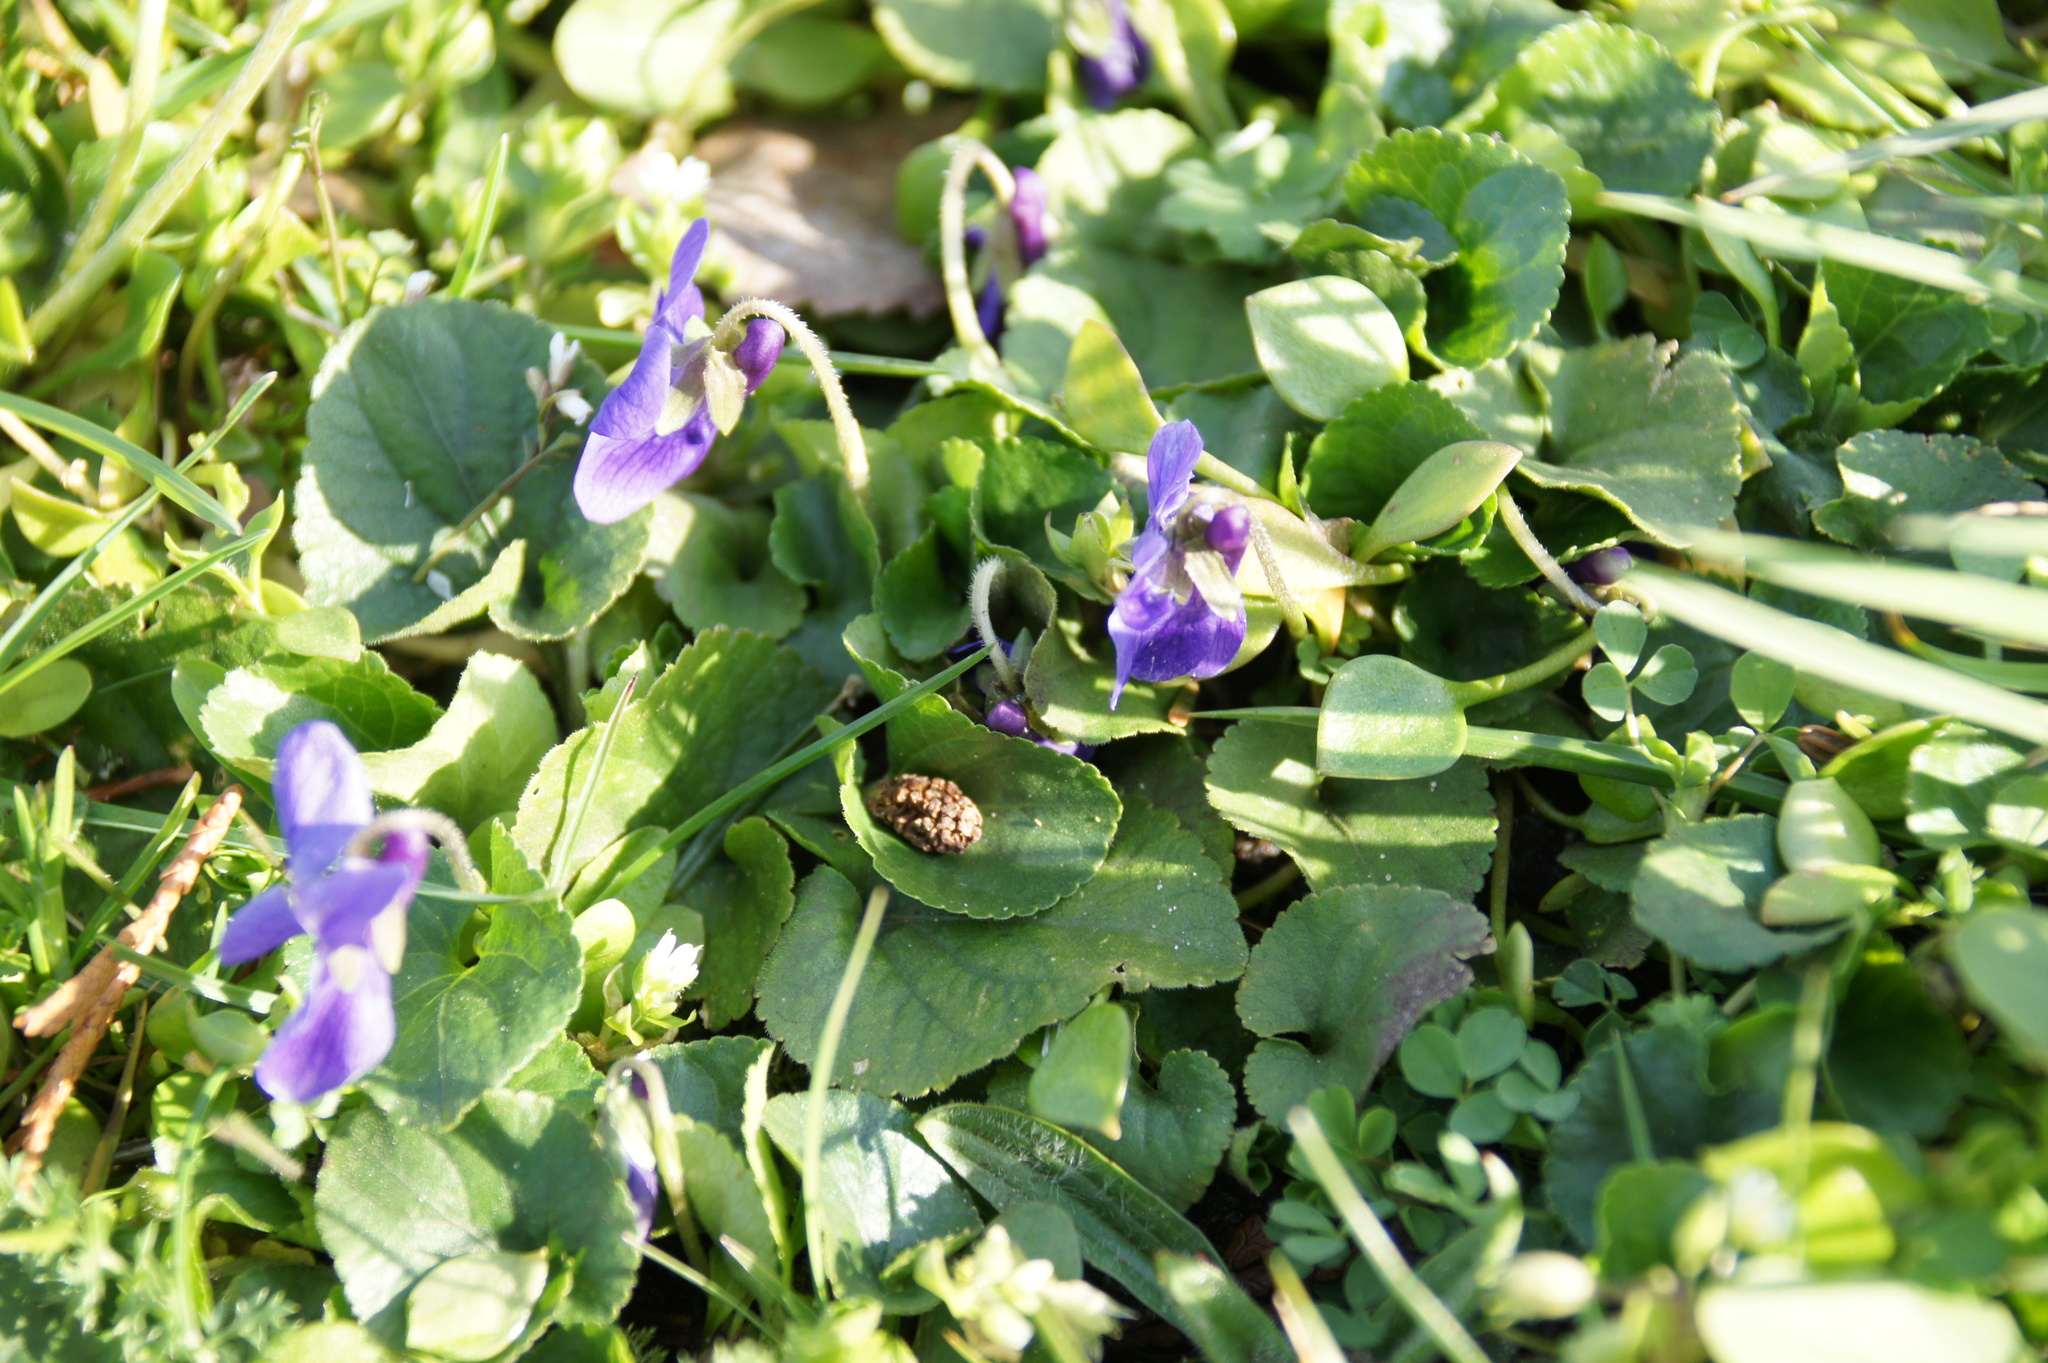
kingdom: Plantae
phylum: Tracheophyta
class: Magnoliopsida
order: Malpighiales
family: Violaceae
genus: Viola
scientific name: Viola odorata
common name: Sweet violet
